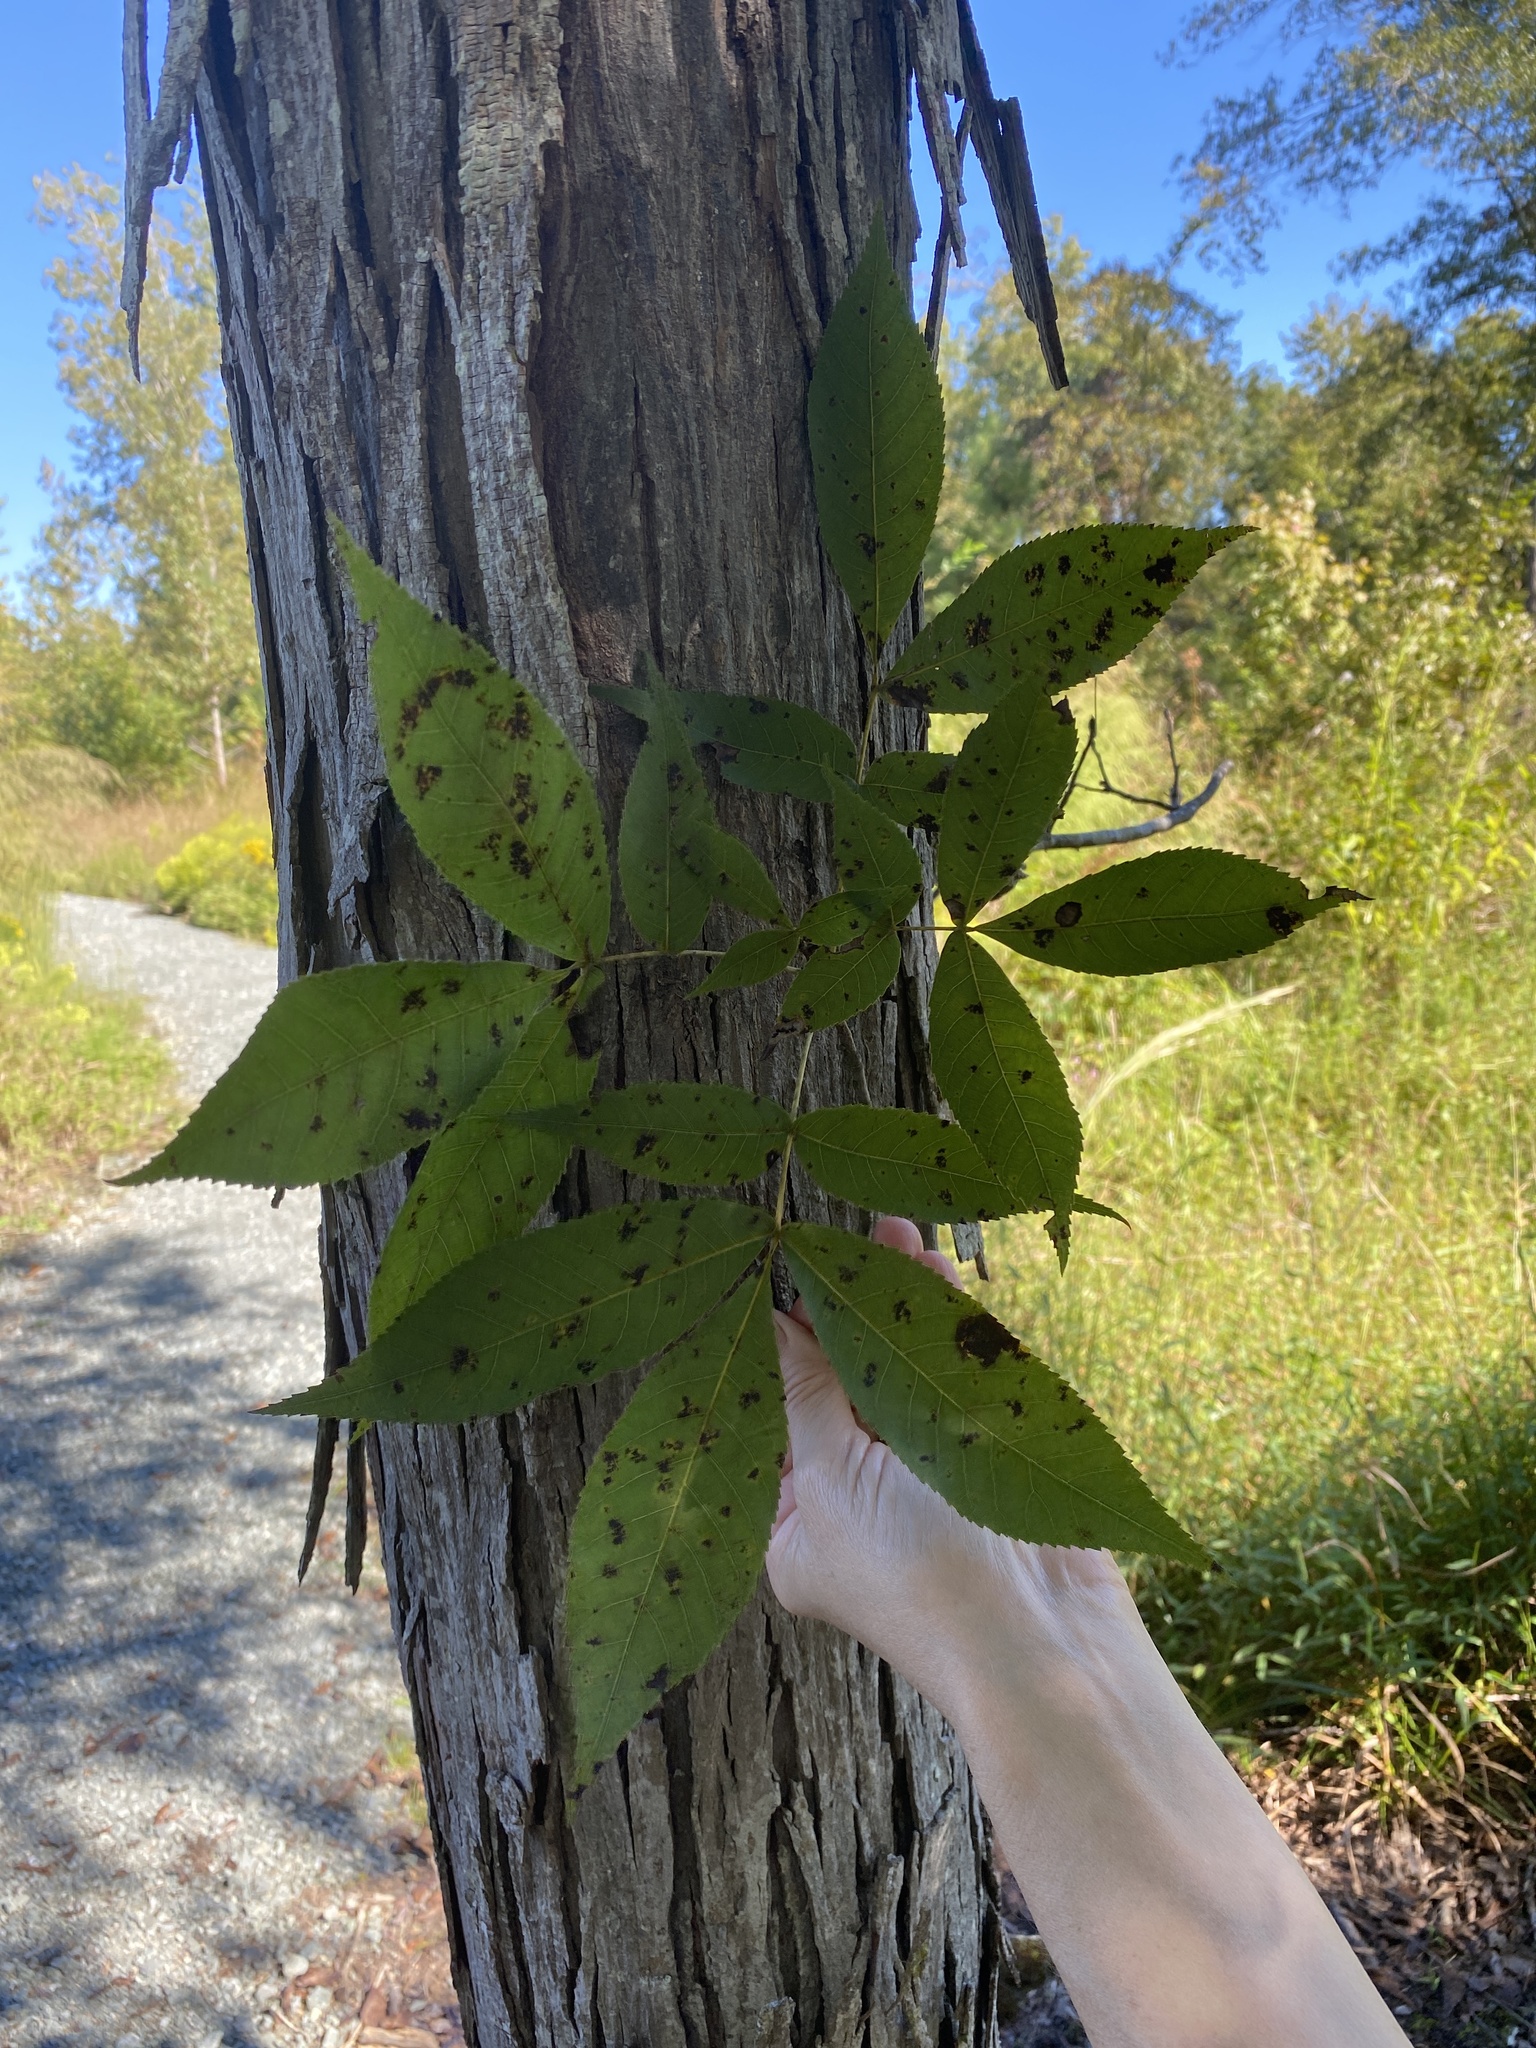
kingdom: Plantae
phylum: Tracheophyta
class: Magnoliopsida
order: Fagales
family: Juglandaceae
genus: Carya
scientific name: Carya carolinae-septentrionalis
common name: Carolina hickory
